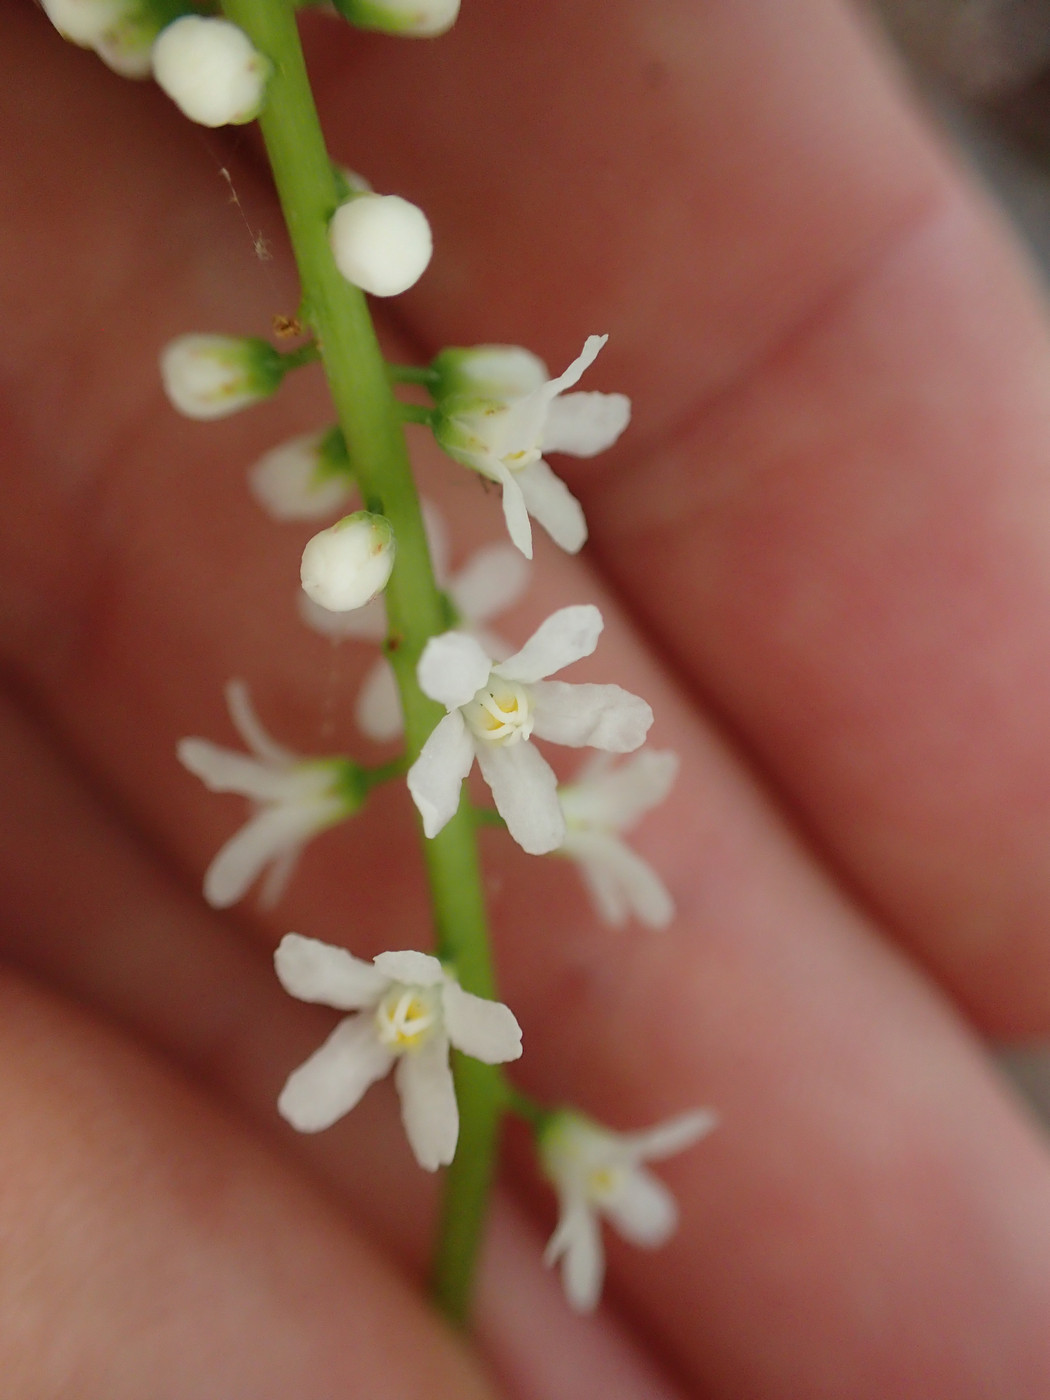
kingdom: Plantae
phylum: Tracheophyta
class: Magnoliopsida
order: Ericales
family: Diapensiaceae
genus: Galax
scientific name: Galax urceolata
